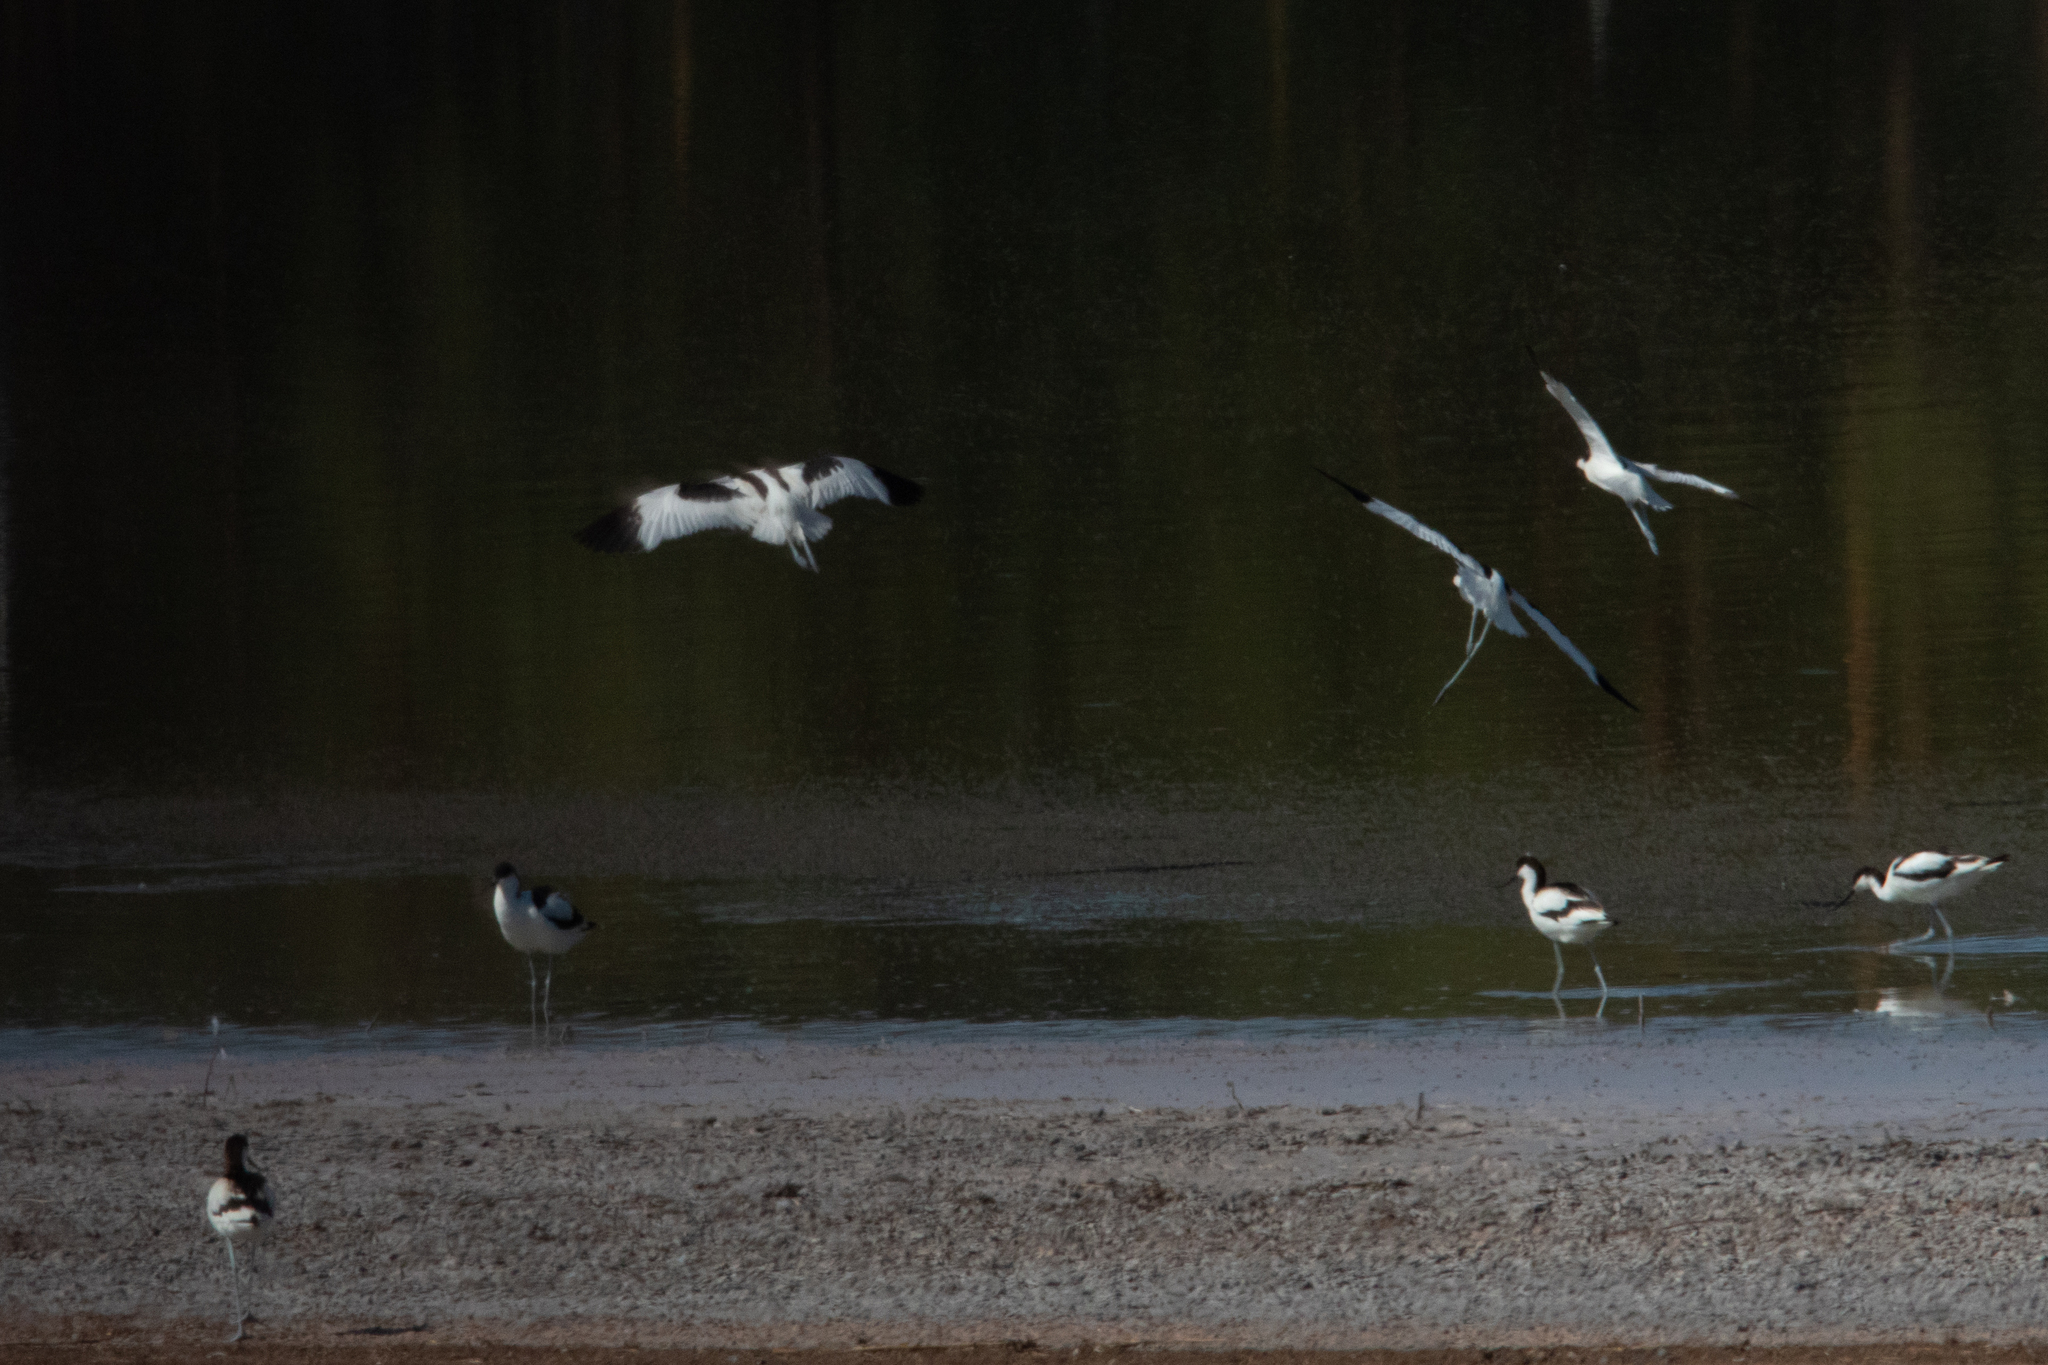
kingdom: Animalia
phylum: Chordata
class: Aves
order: Charadriiformes
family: Recurvirostridae
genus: Recurvirostra
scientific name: Recurvirostra avosetta
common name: Pied avocet
